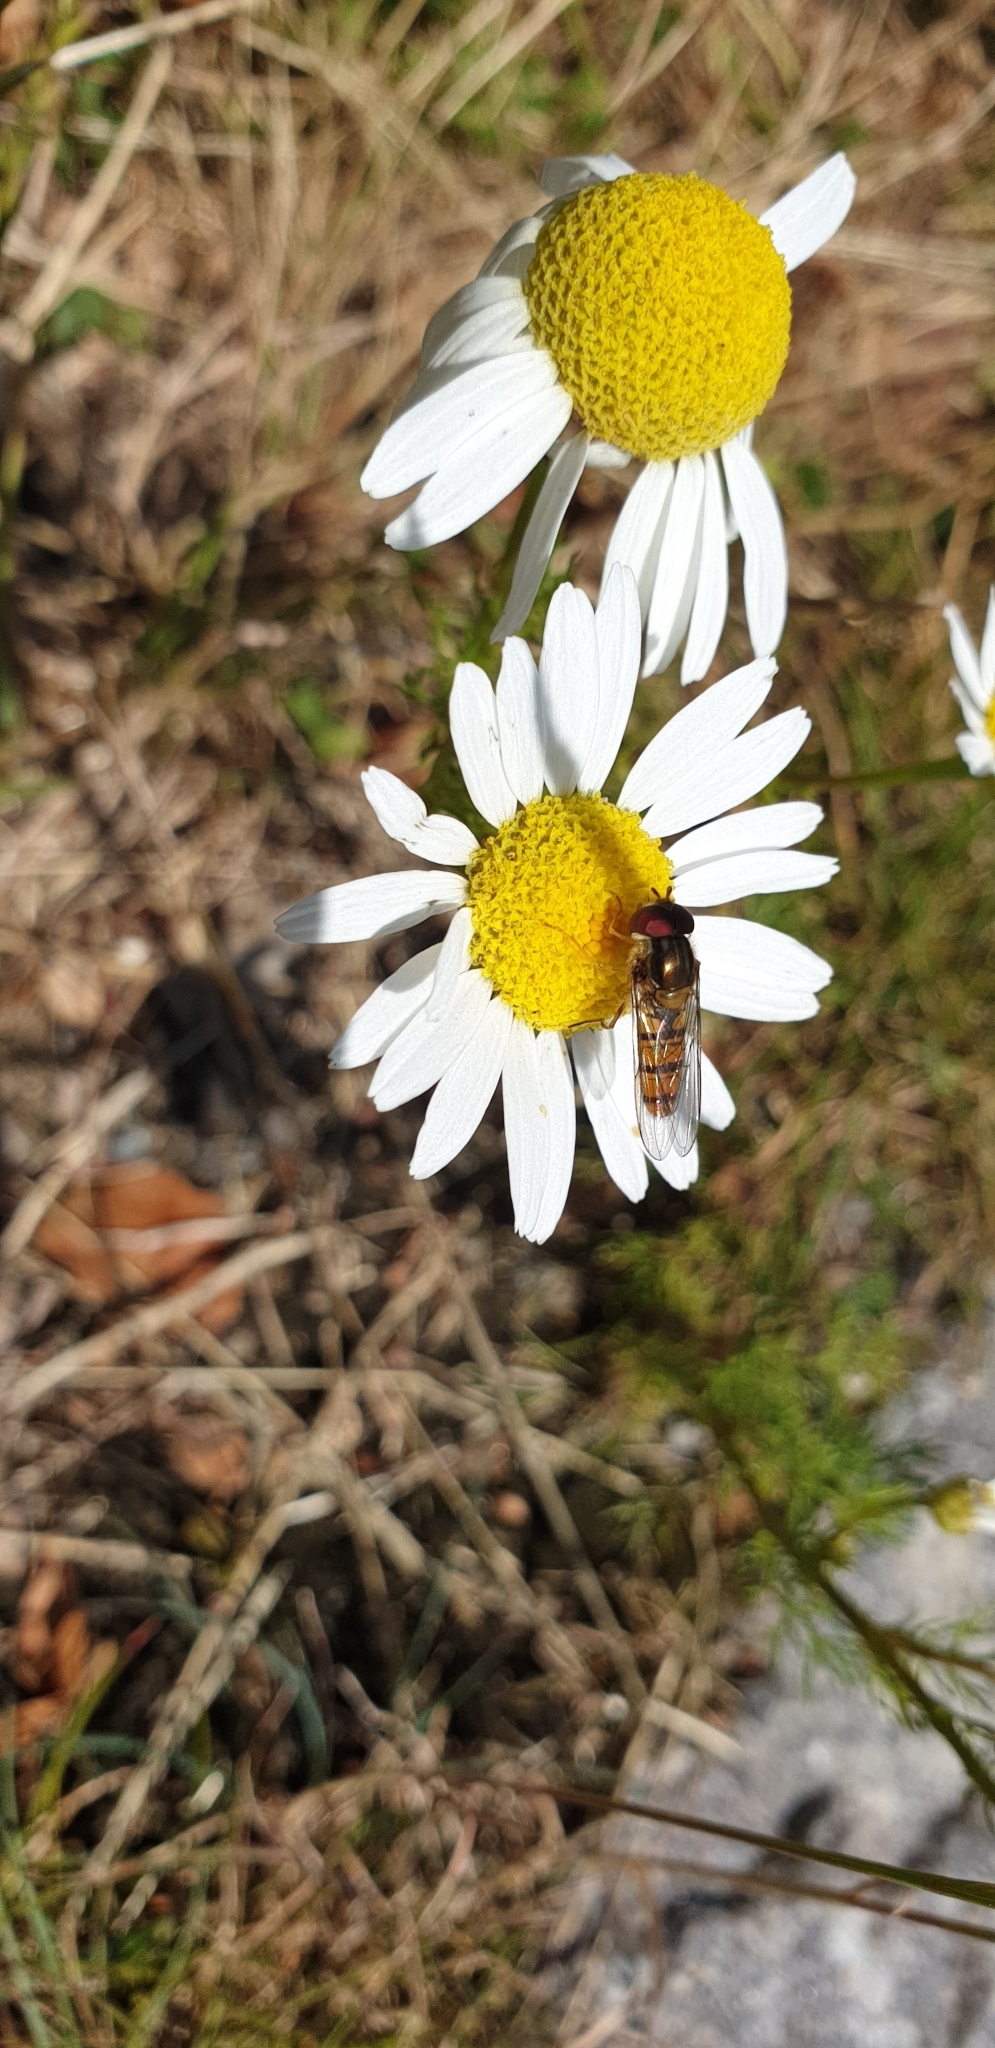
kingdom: Animalia
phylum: Arthropoda
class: Insecta
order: Diptera
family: Syrphidae
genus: Episyrphus
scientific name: Episyrphus balteatus
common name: Marmalade hoverfly
